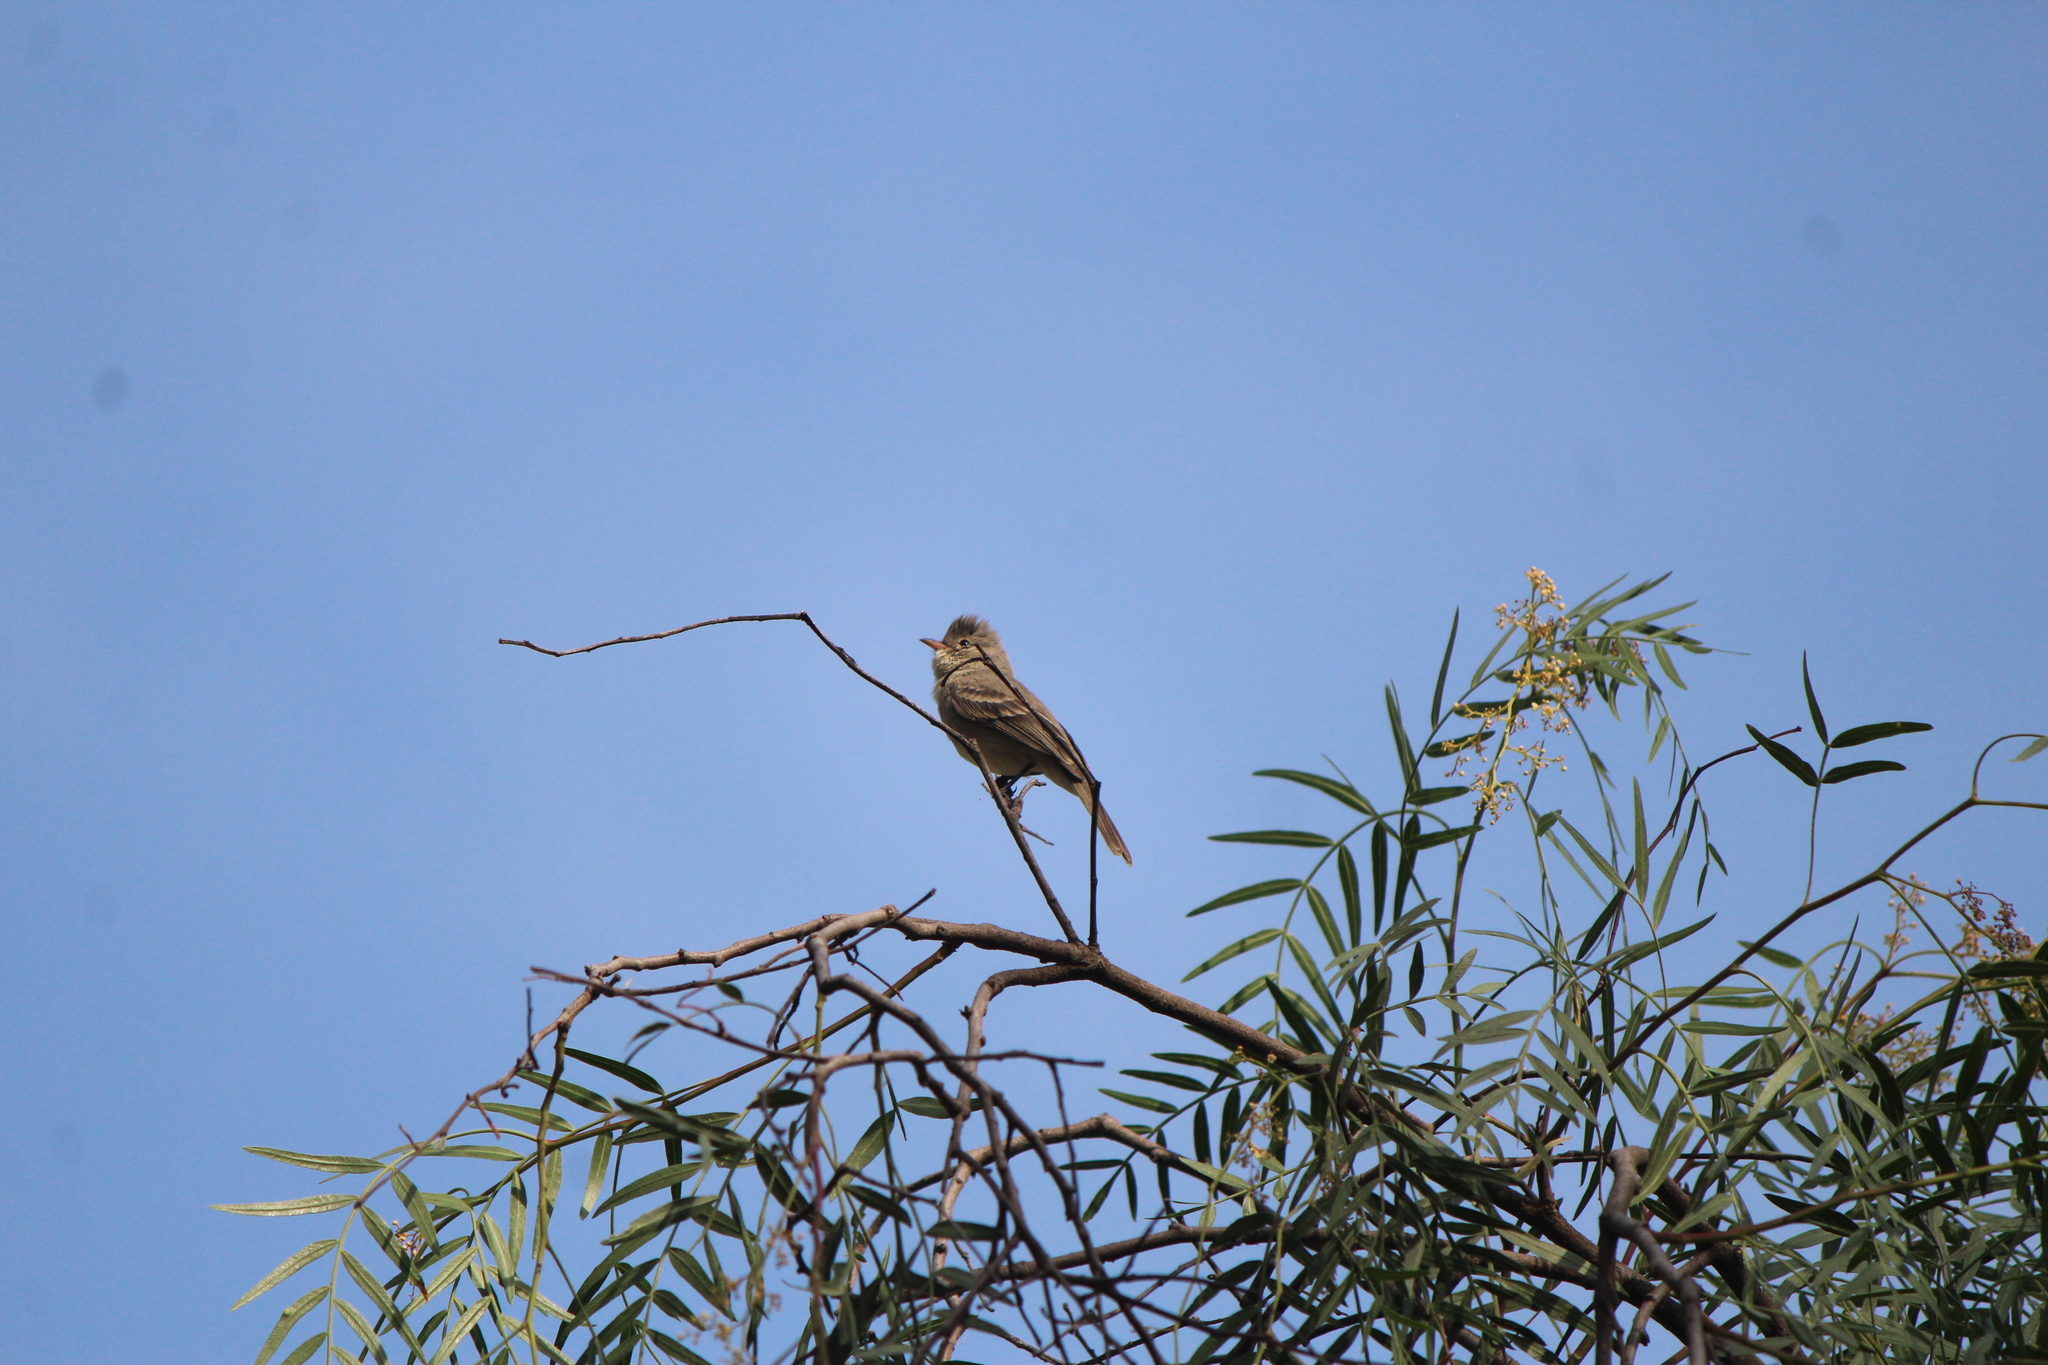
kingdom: Animalia
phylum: Chordata
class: Aves
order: Passeriformes
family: Tyrannidae
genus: Camptostoma
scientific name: Camptostoma imberbe
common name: Northern beardless-tyrannulet
